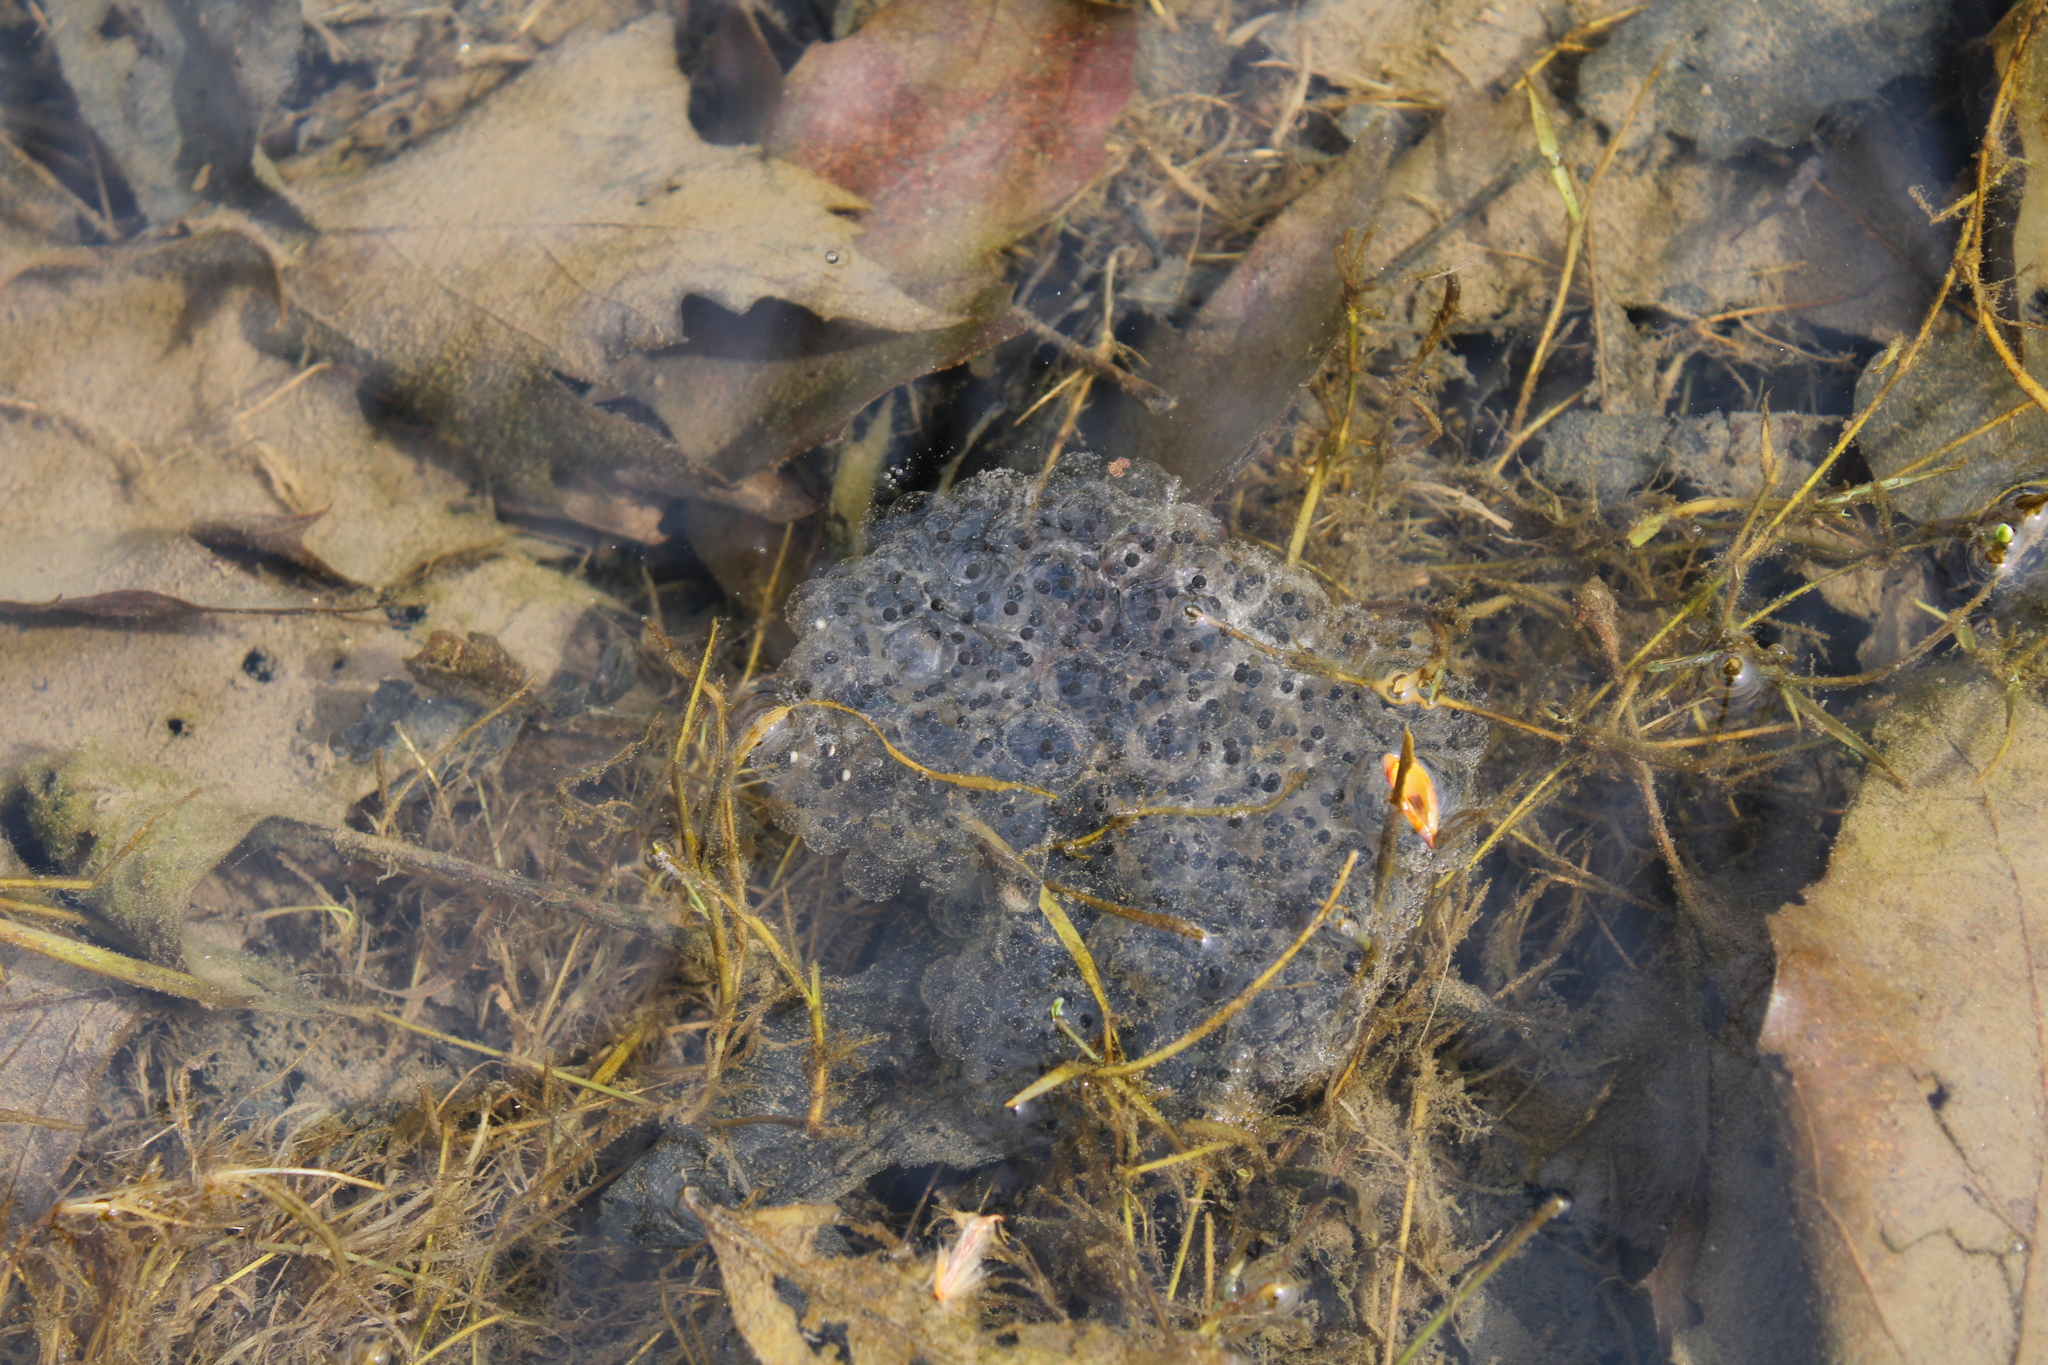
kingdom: Animalia
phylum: Chordata
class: Amphibia
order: Anura
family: Ranidae
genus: Rana
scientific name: Rana dalmatina
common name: Agile frog
